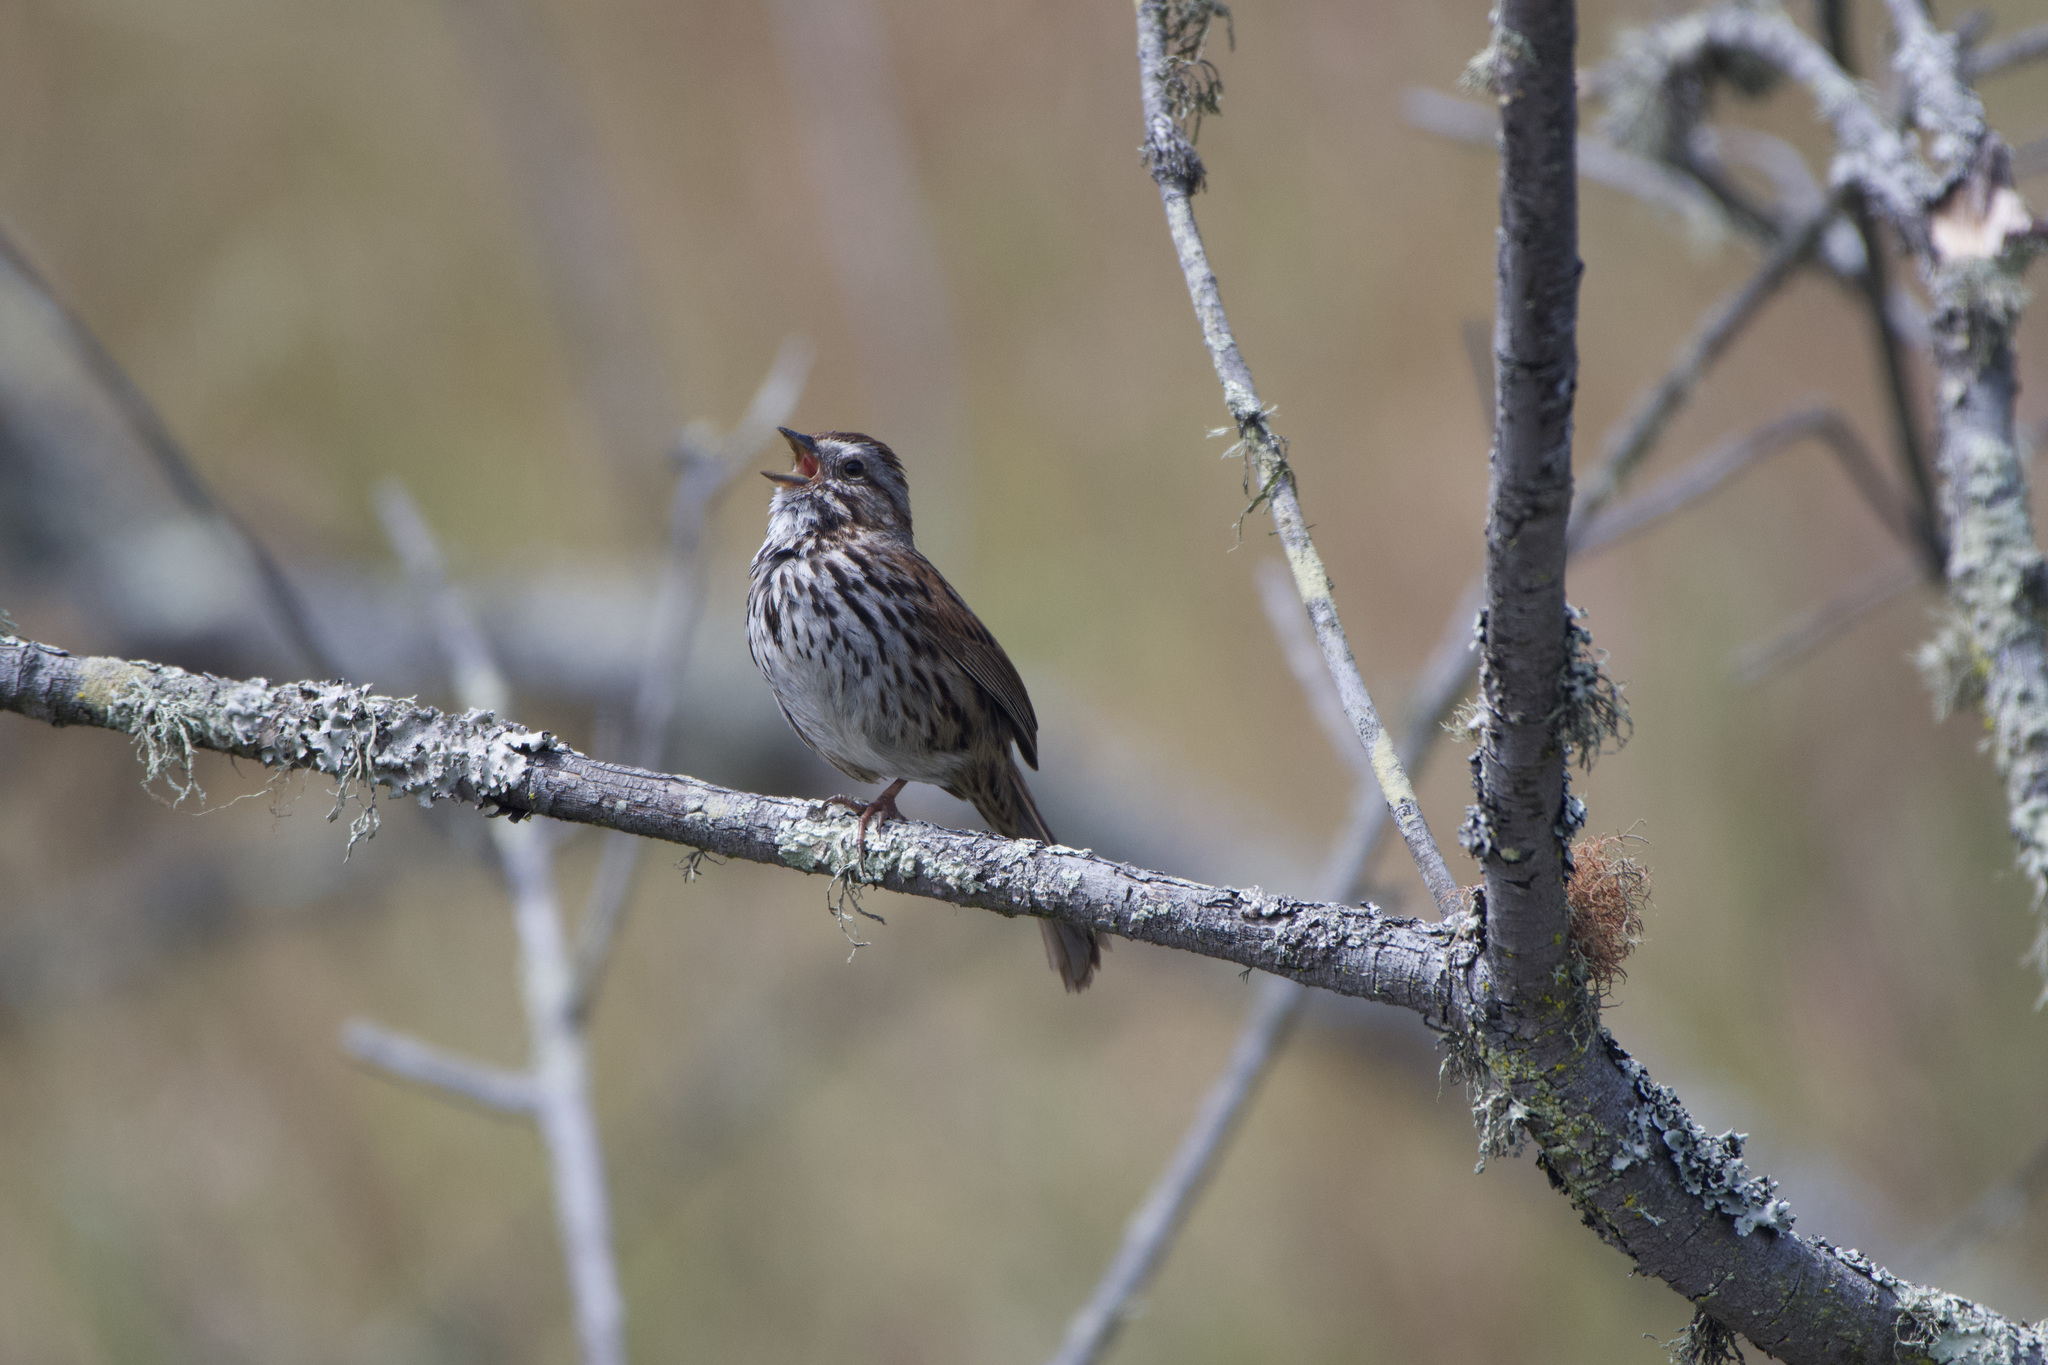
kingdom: Animalia
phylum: Chordata
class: Aves
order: Passeriformes
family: Passerellidae
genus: Melospiza
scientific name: Melospiza melodia
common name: Song sparrow
